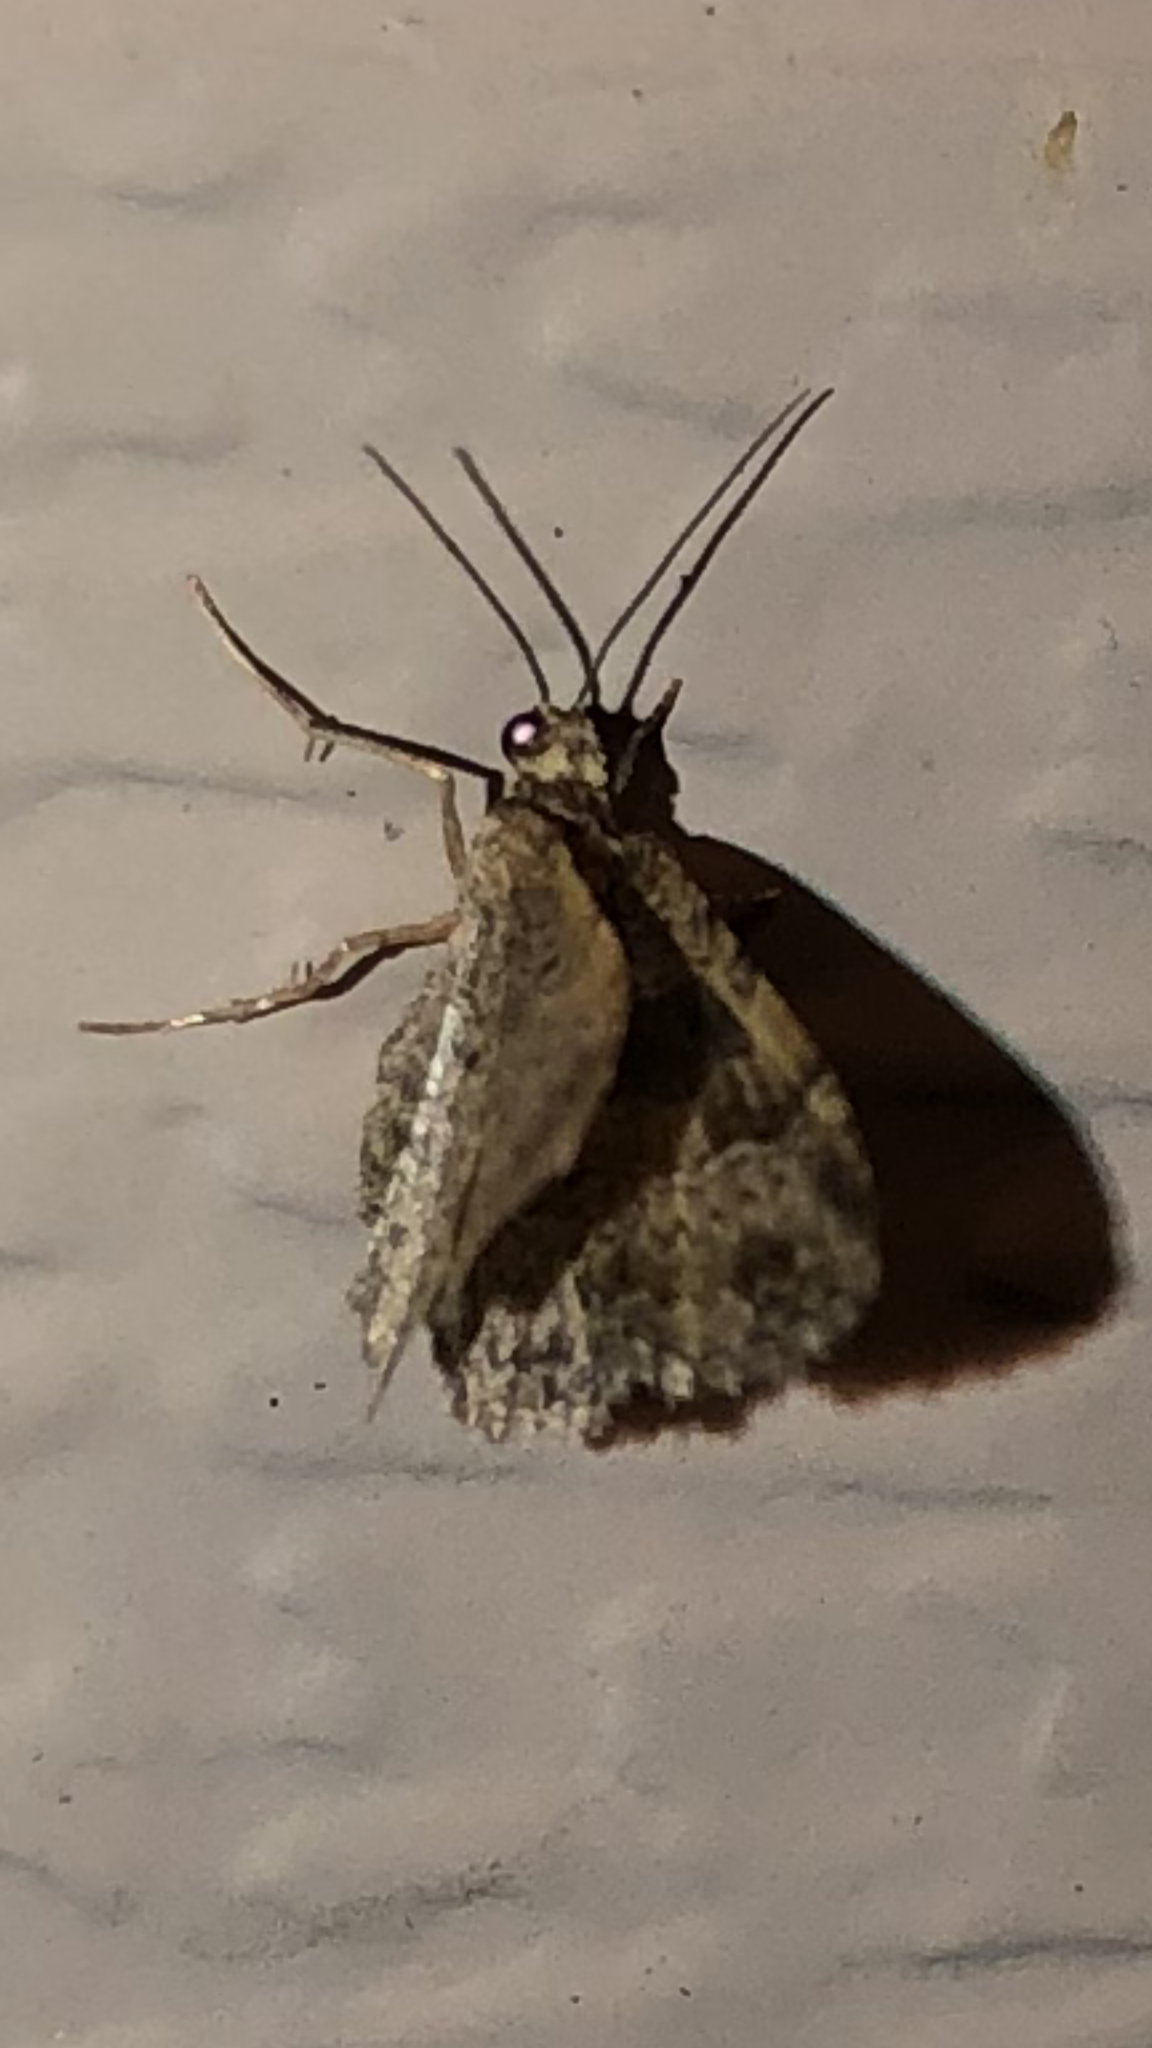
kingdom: Animalia
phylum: Arthropoda
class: Insecta
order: Lepidoptera
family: Geometridae
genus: Costaconvexa
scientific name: Costaconvexa centrostrigaria
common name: Bent-line carpet
